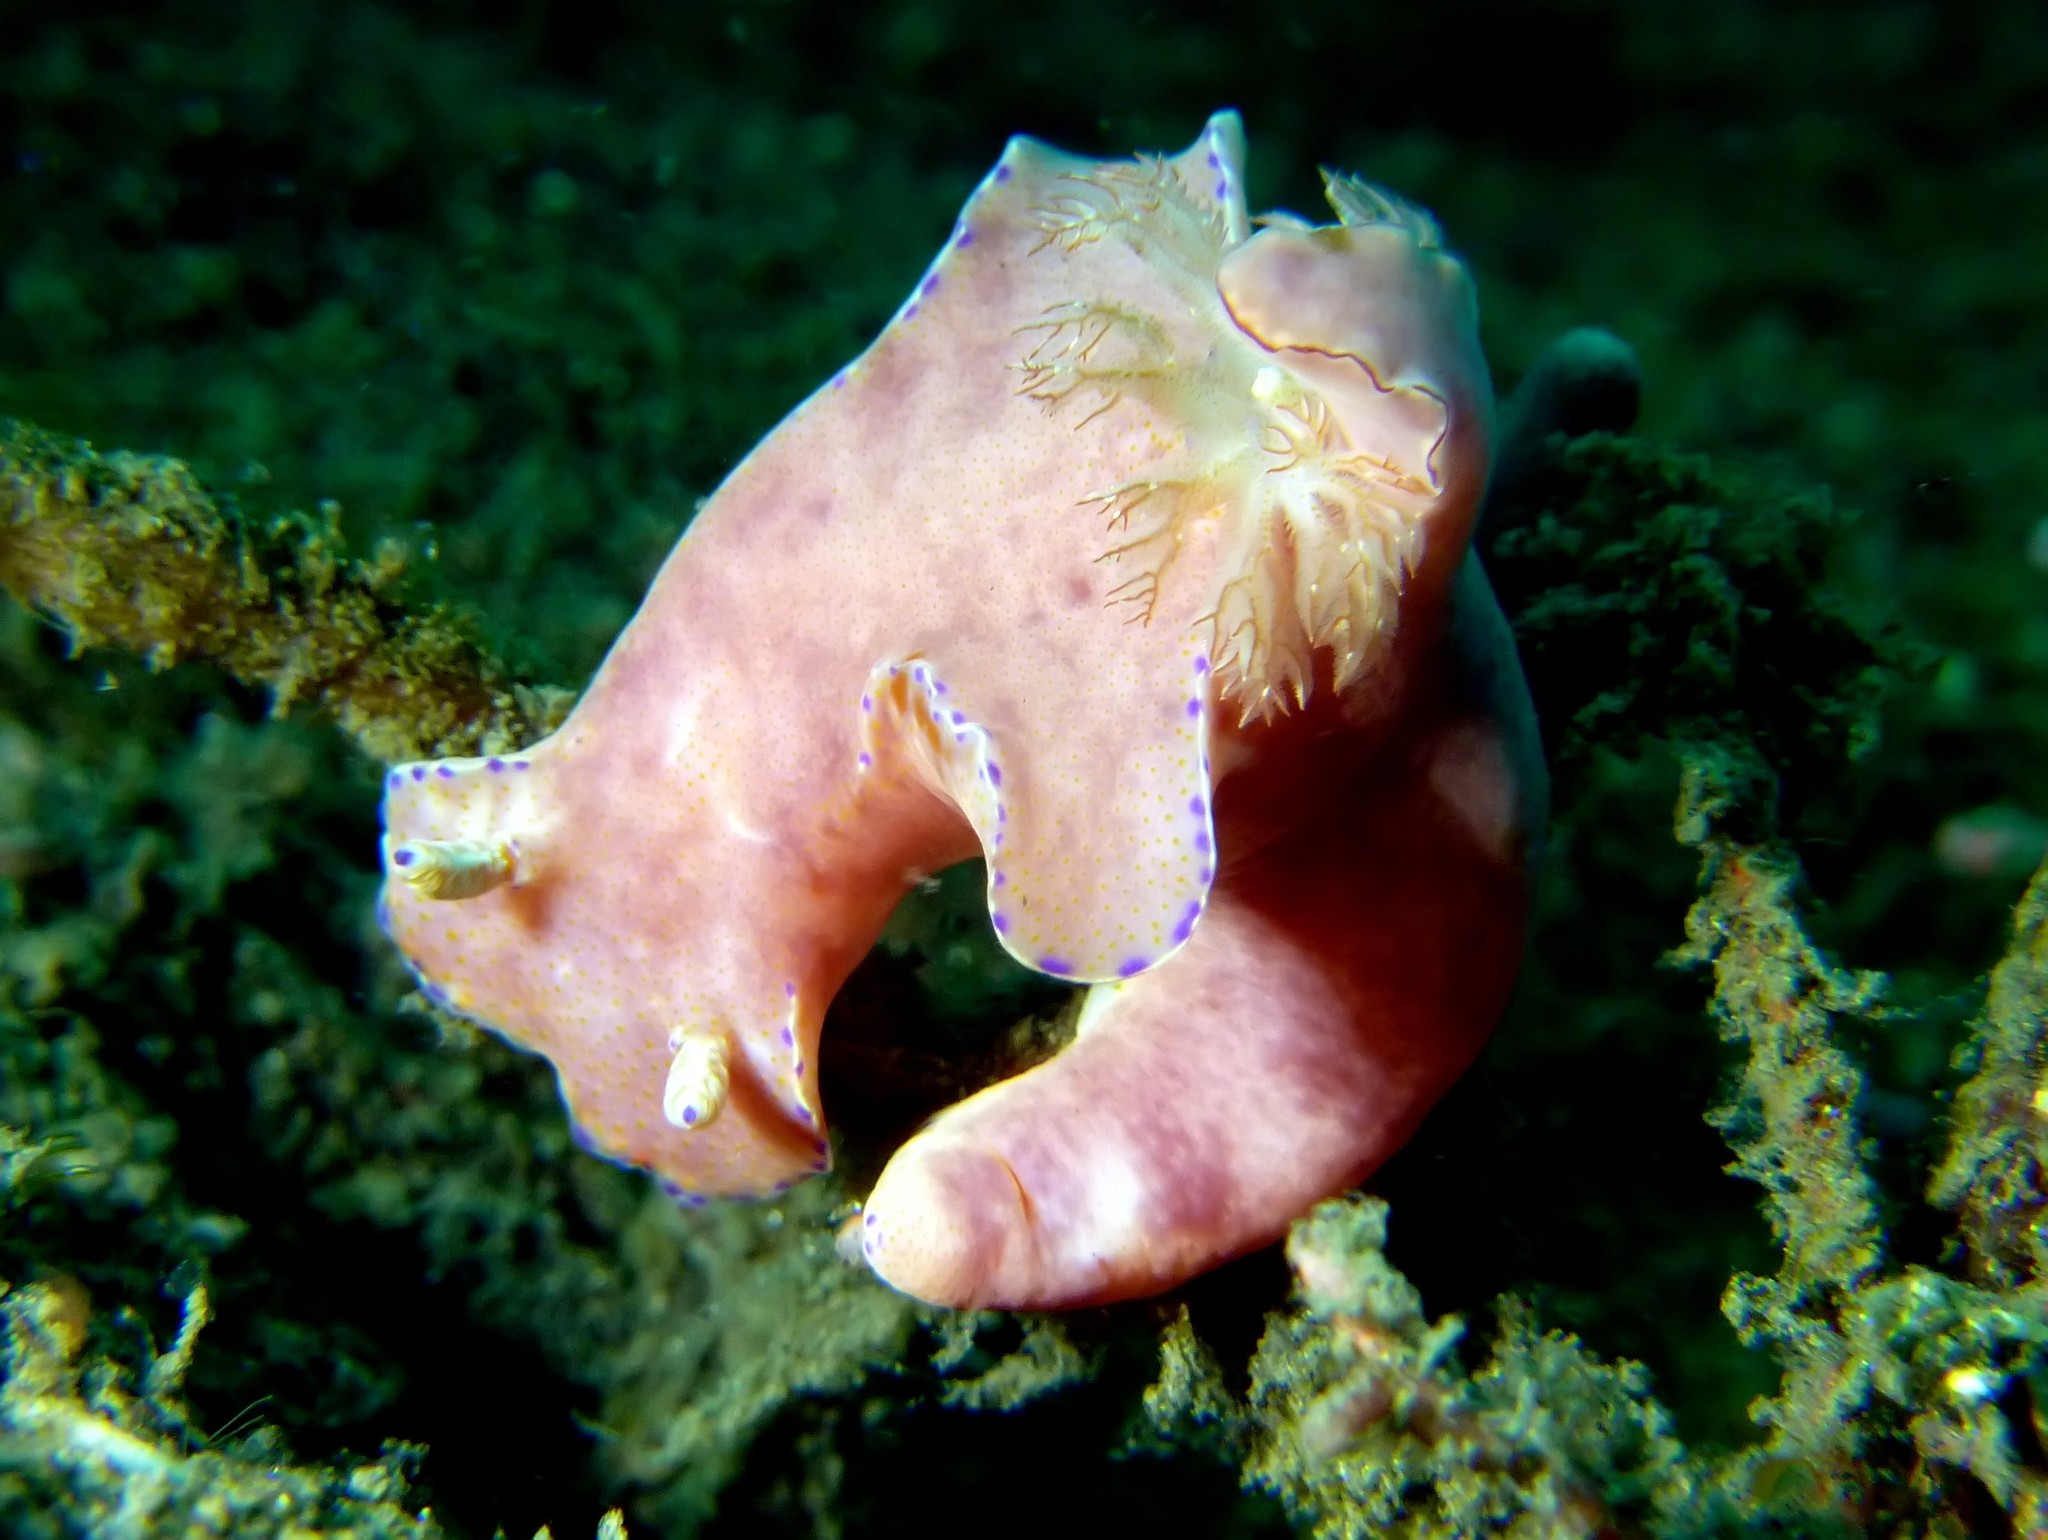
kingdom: Animalia
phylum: Mollusca
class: Gastropoda
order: Nudibranchia
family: Chromodorididae
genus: Ceratosoma
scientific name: Ceratosoma gracillimum
